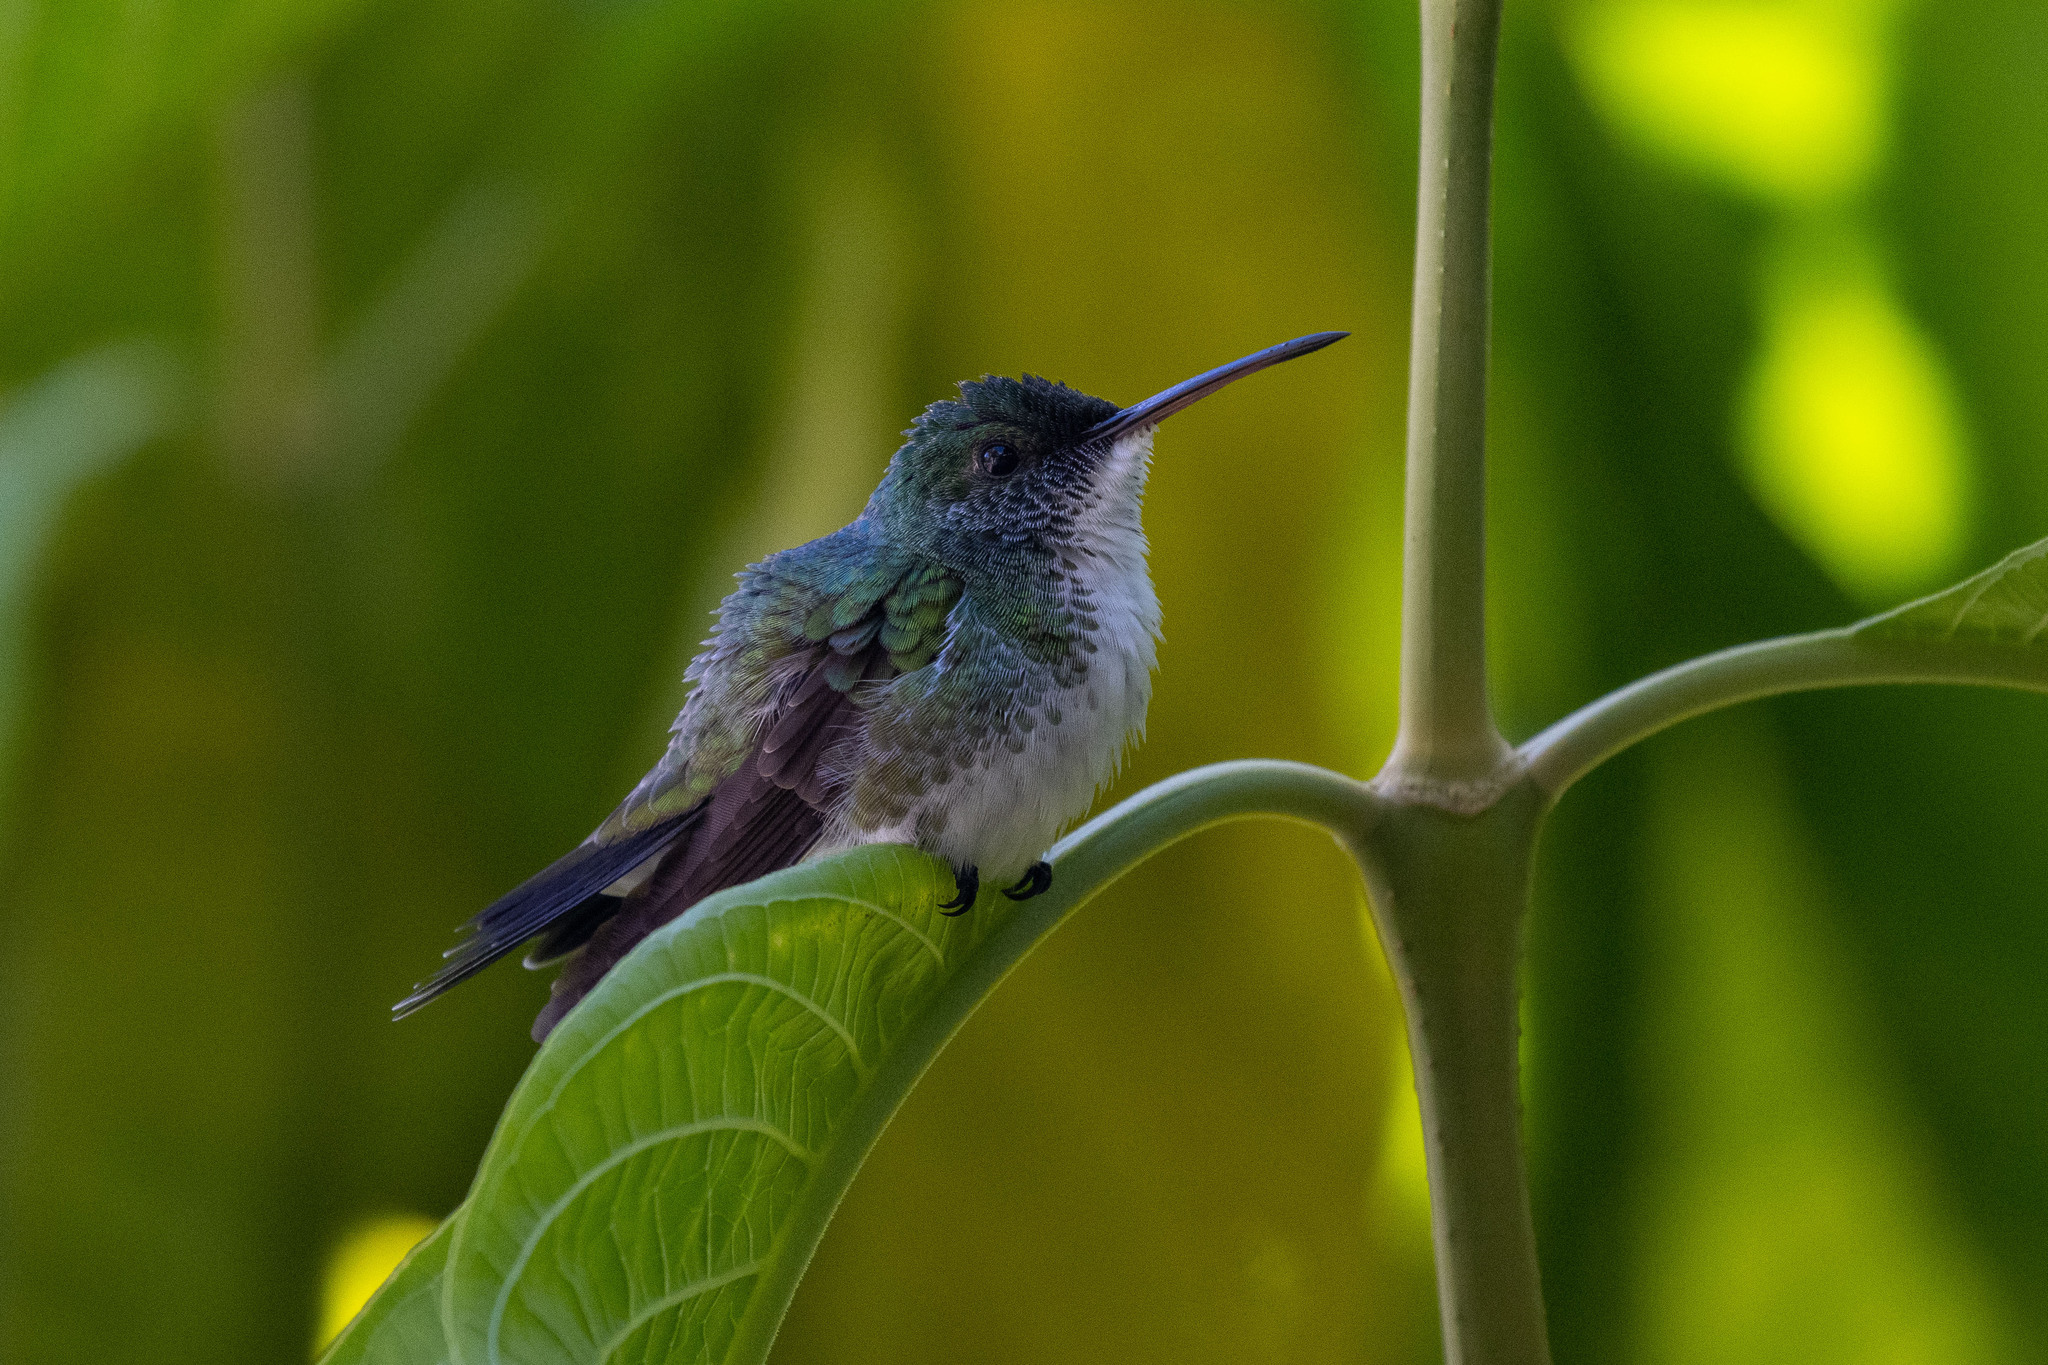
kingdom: Animalia
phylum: Chordata
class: Aves
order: Apodiformes
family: Trochilidae
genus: Chrysuronia
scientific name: Chrysuronia leucogaster
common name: Plain-bellied emerald
